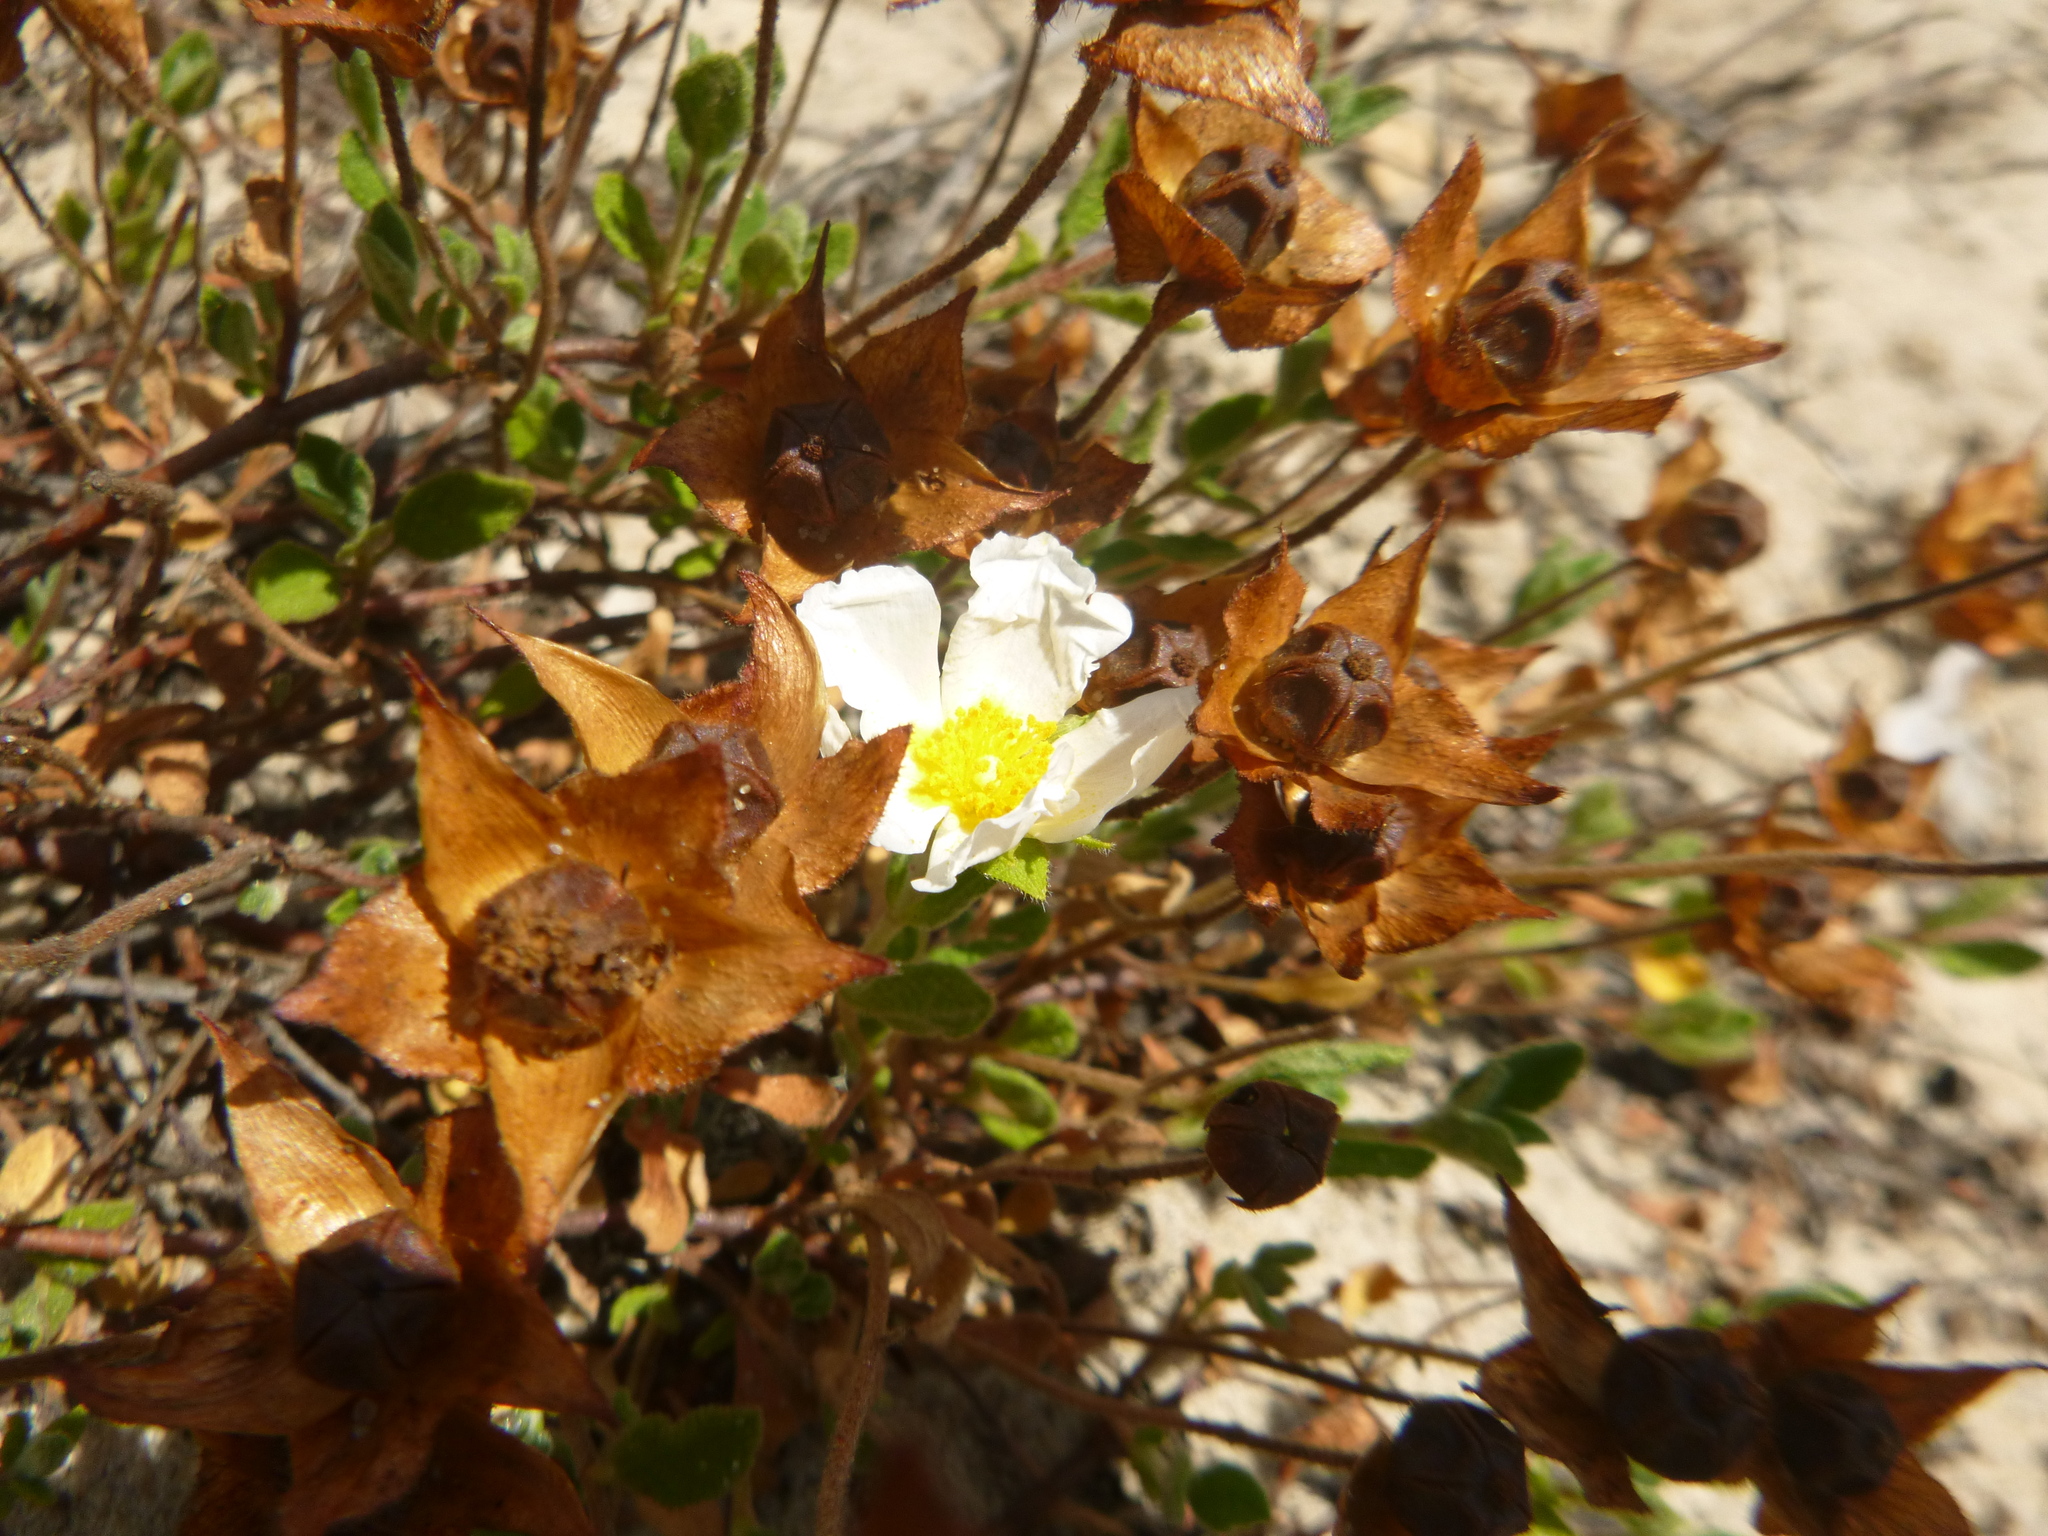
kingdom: Plantae
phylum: Tracheophyta
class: Magnoliopsida
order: Malvales
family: Cistaceae
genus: Cistus
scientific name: Cistus salviifolius
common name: Salvia cistus
